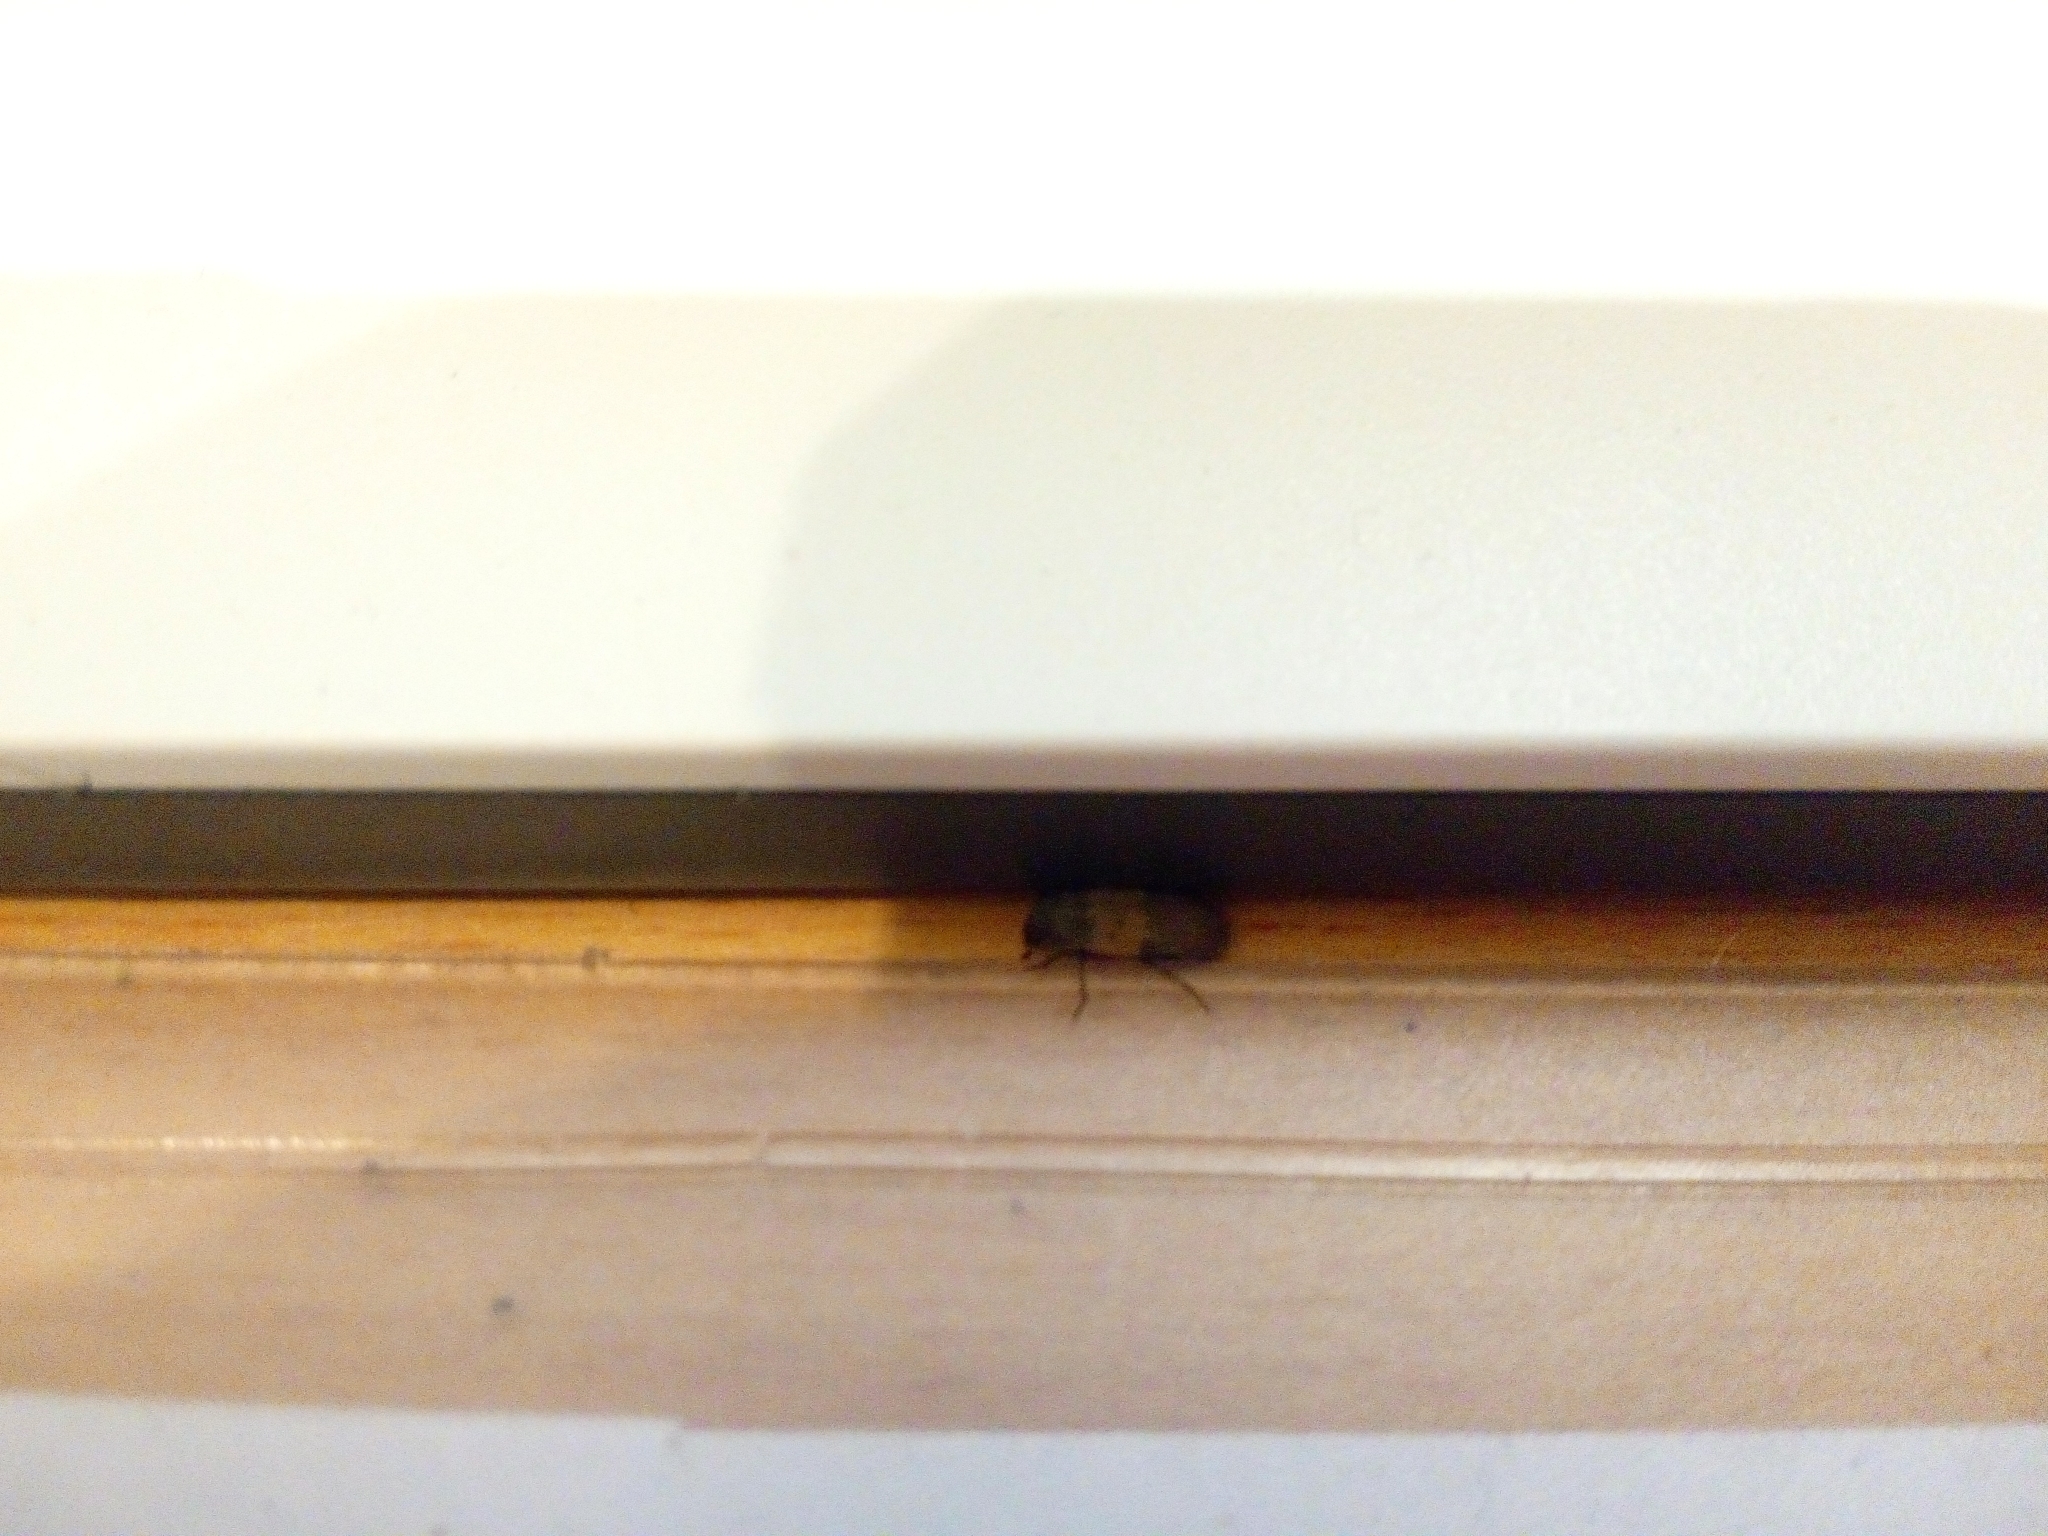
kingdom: Animalia
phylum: Arthropoda
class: Insecta
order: Coleoptera
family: Dermestidae
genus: Dermestes
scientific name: Dermestes lardarius
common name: Larder beetle
